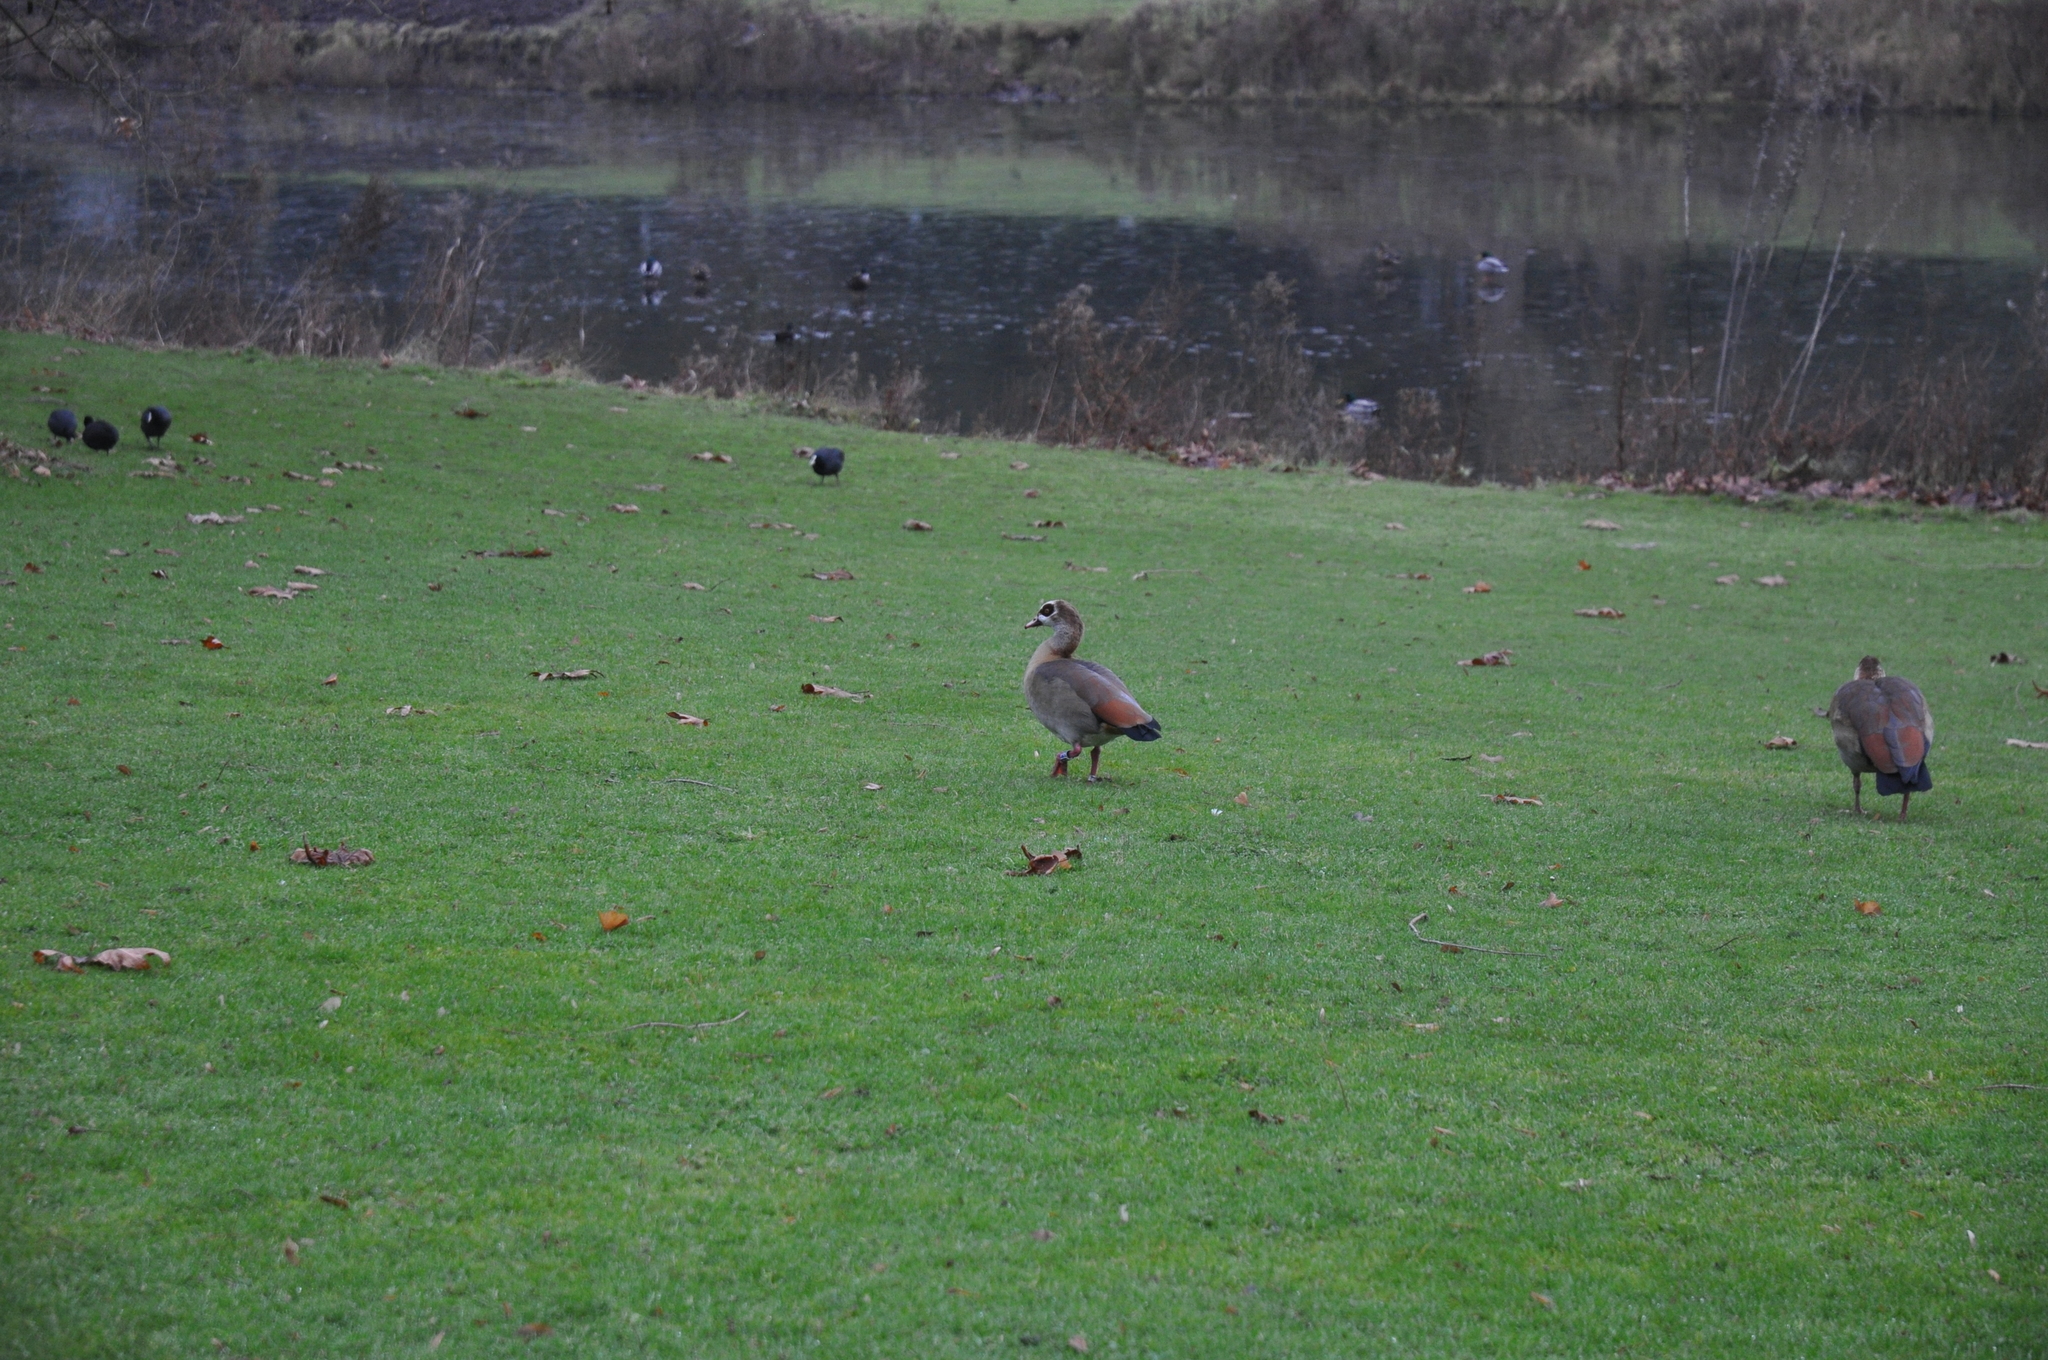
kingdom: Animalia
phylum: Chordata
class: Aves
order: Anseriformes
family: Anatidae
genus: Alopochen
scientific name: Alopochen aegyptiaca
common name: Egyptian goose
